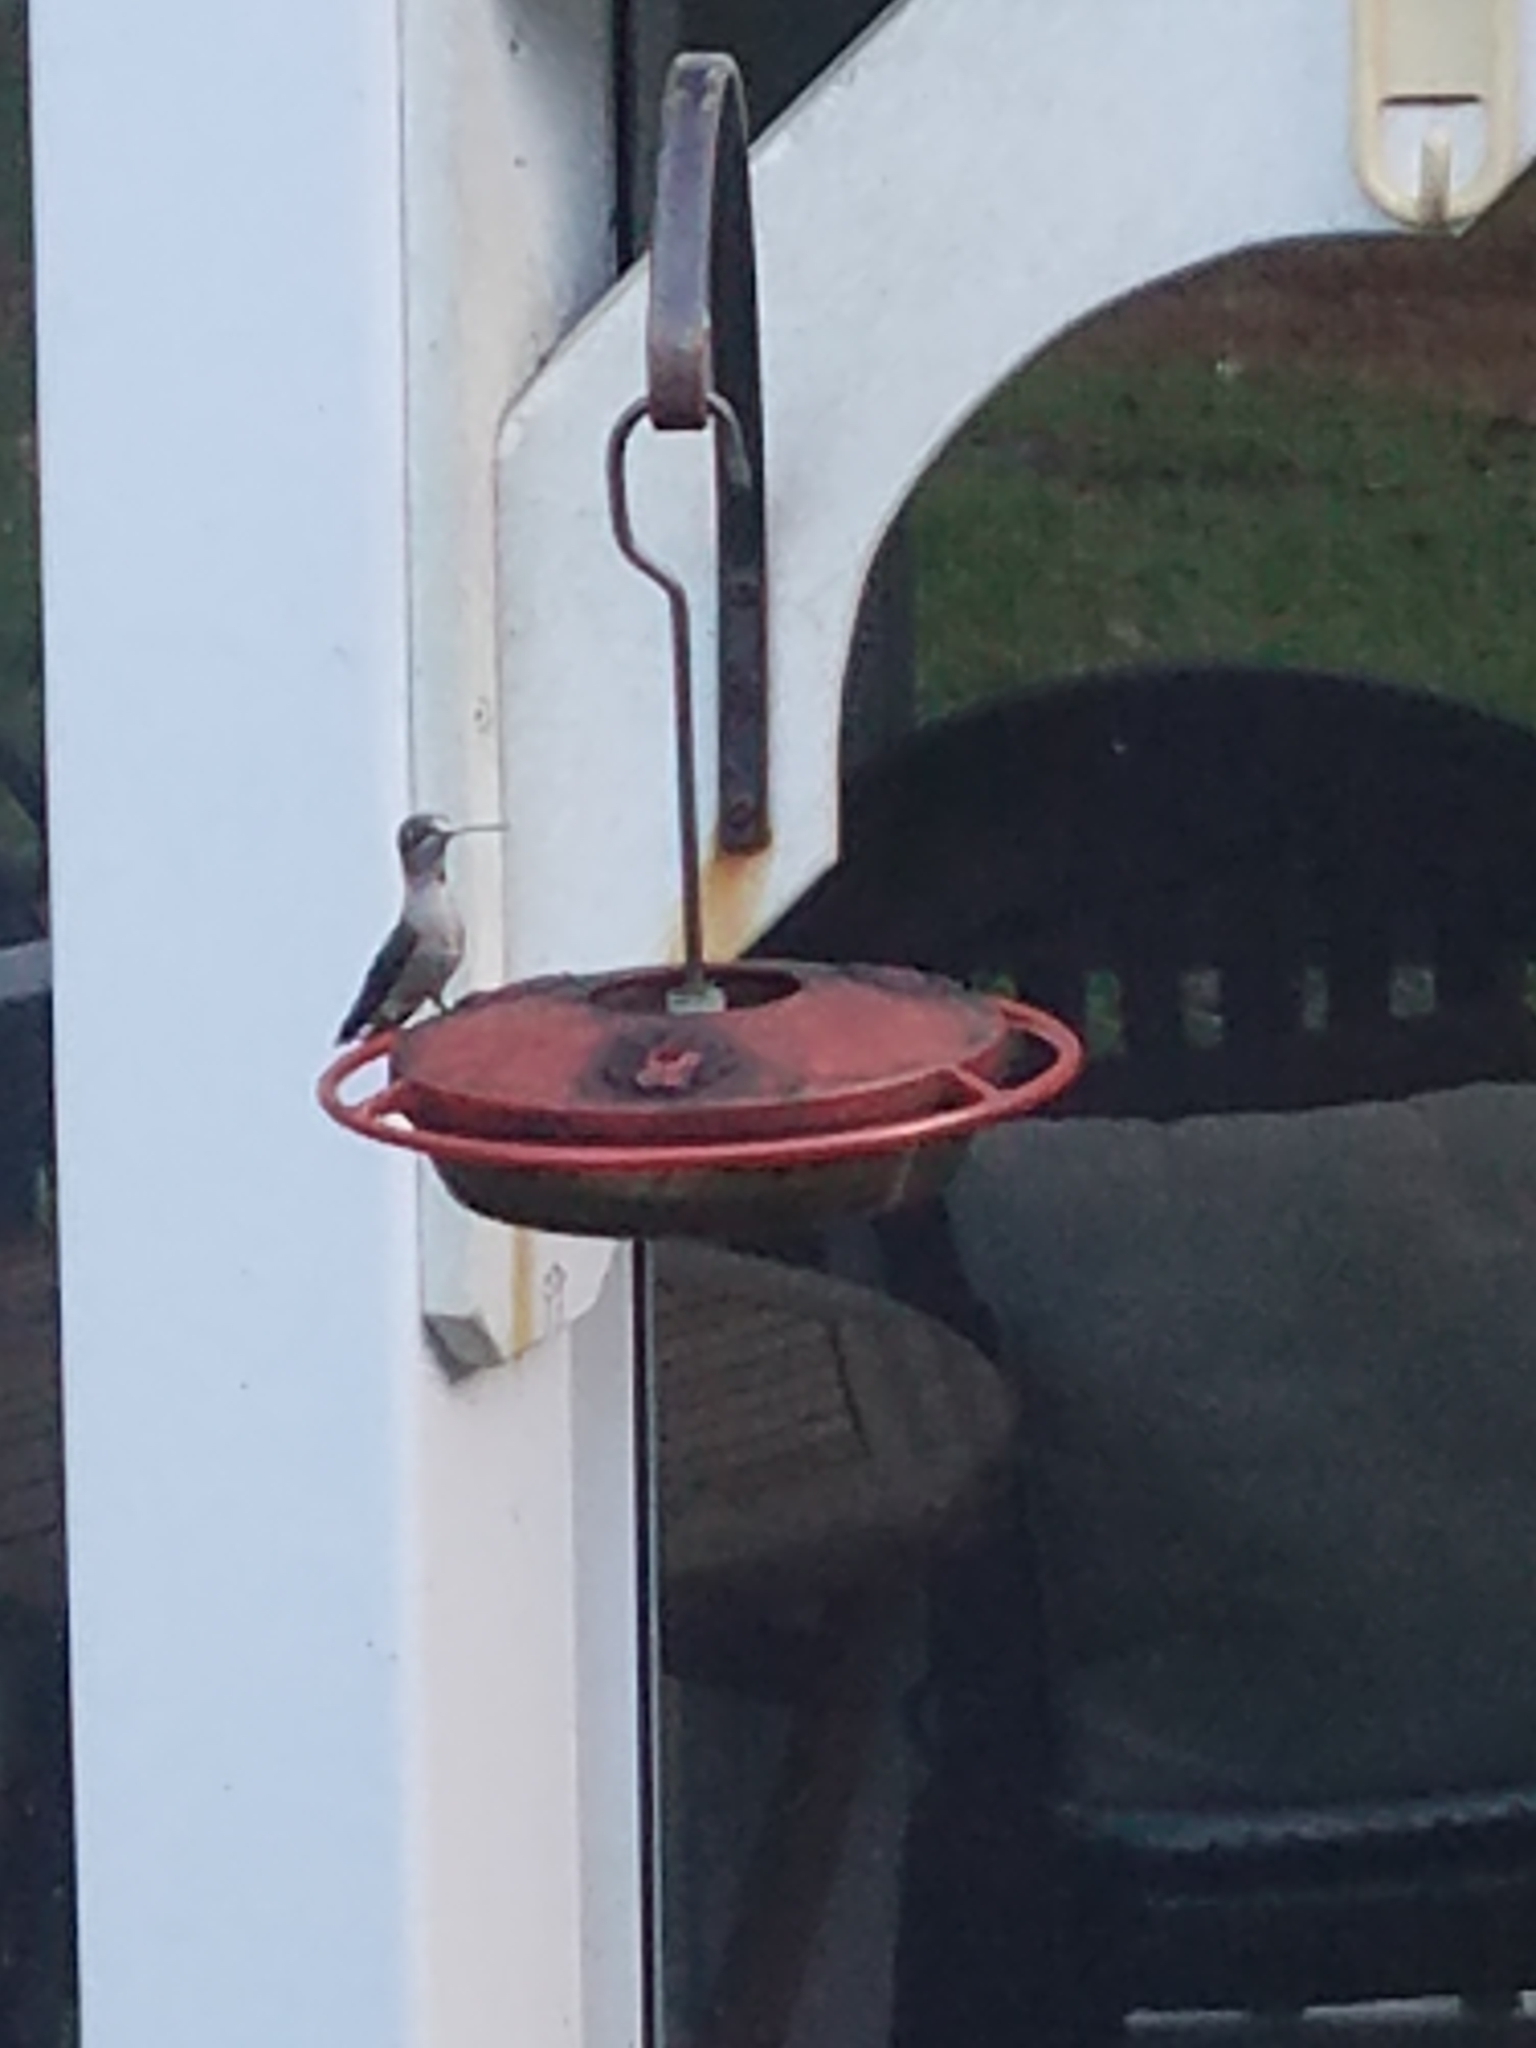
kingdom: Animalia
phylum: Chordata
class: Aves
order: Apodiformes
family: Trochilidae
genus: Archilochus
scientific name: Archilochus colubris
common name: Ruby-throated hummingbird
